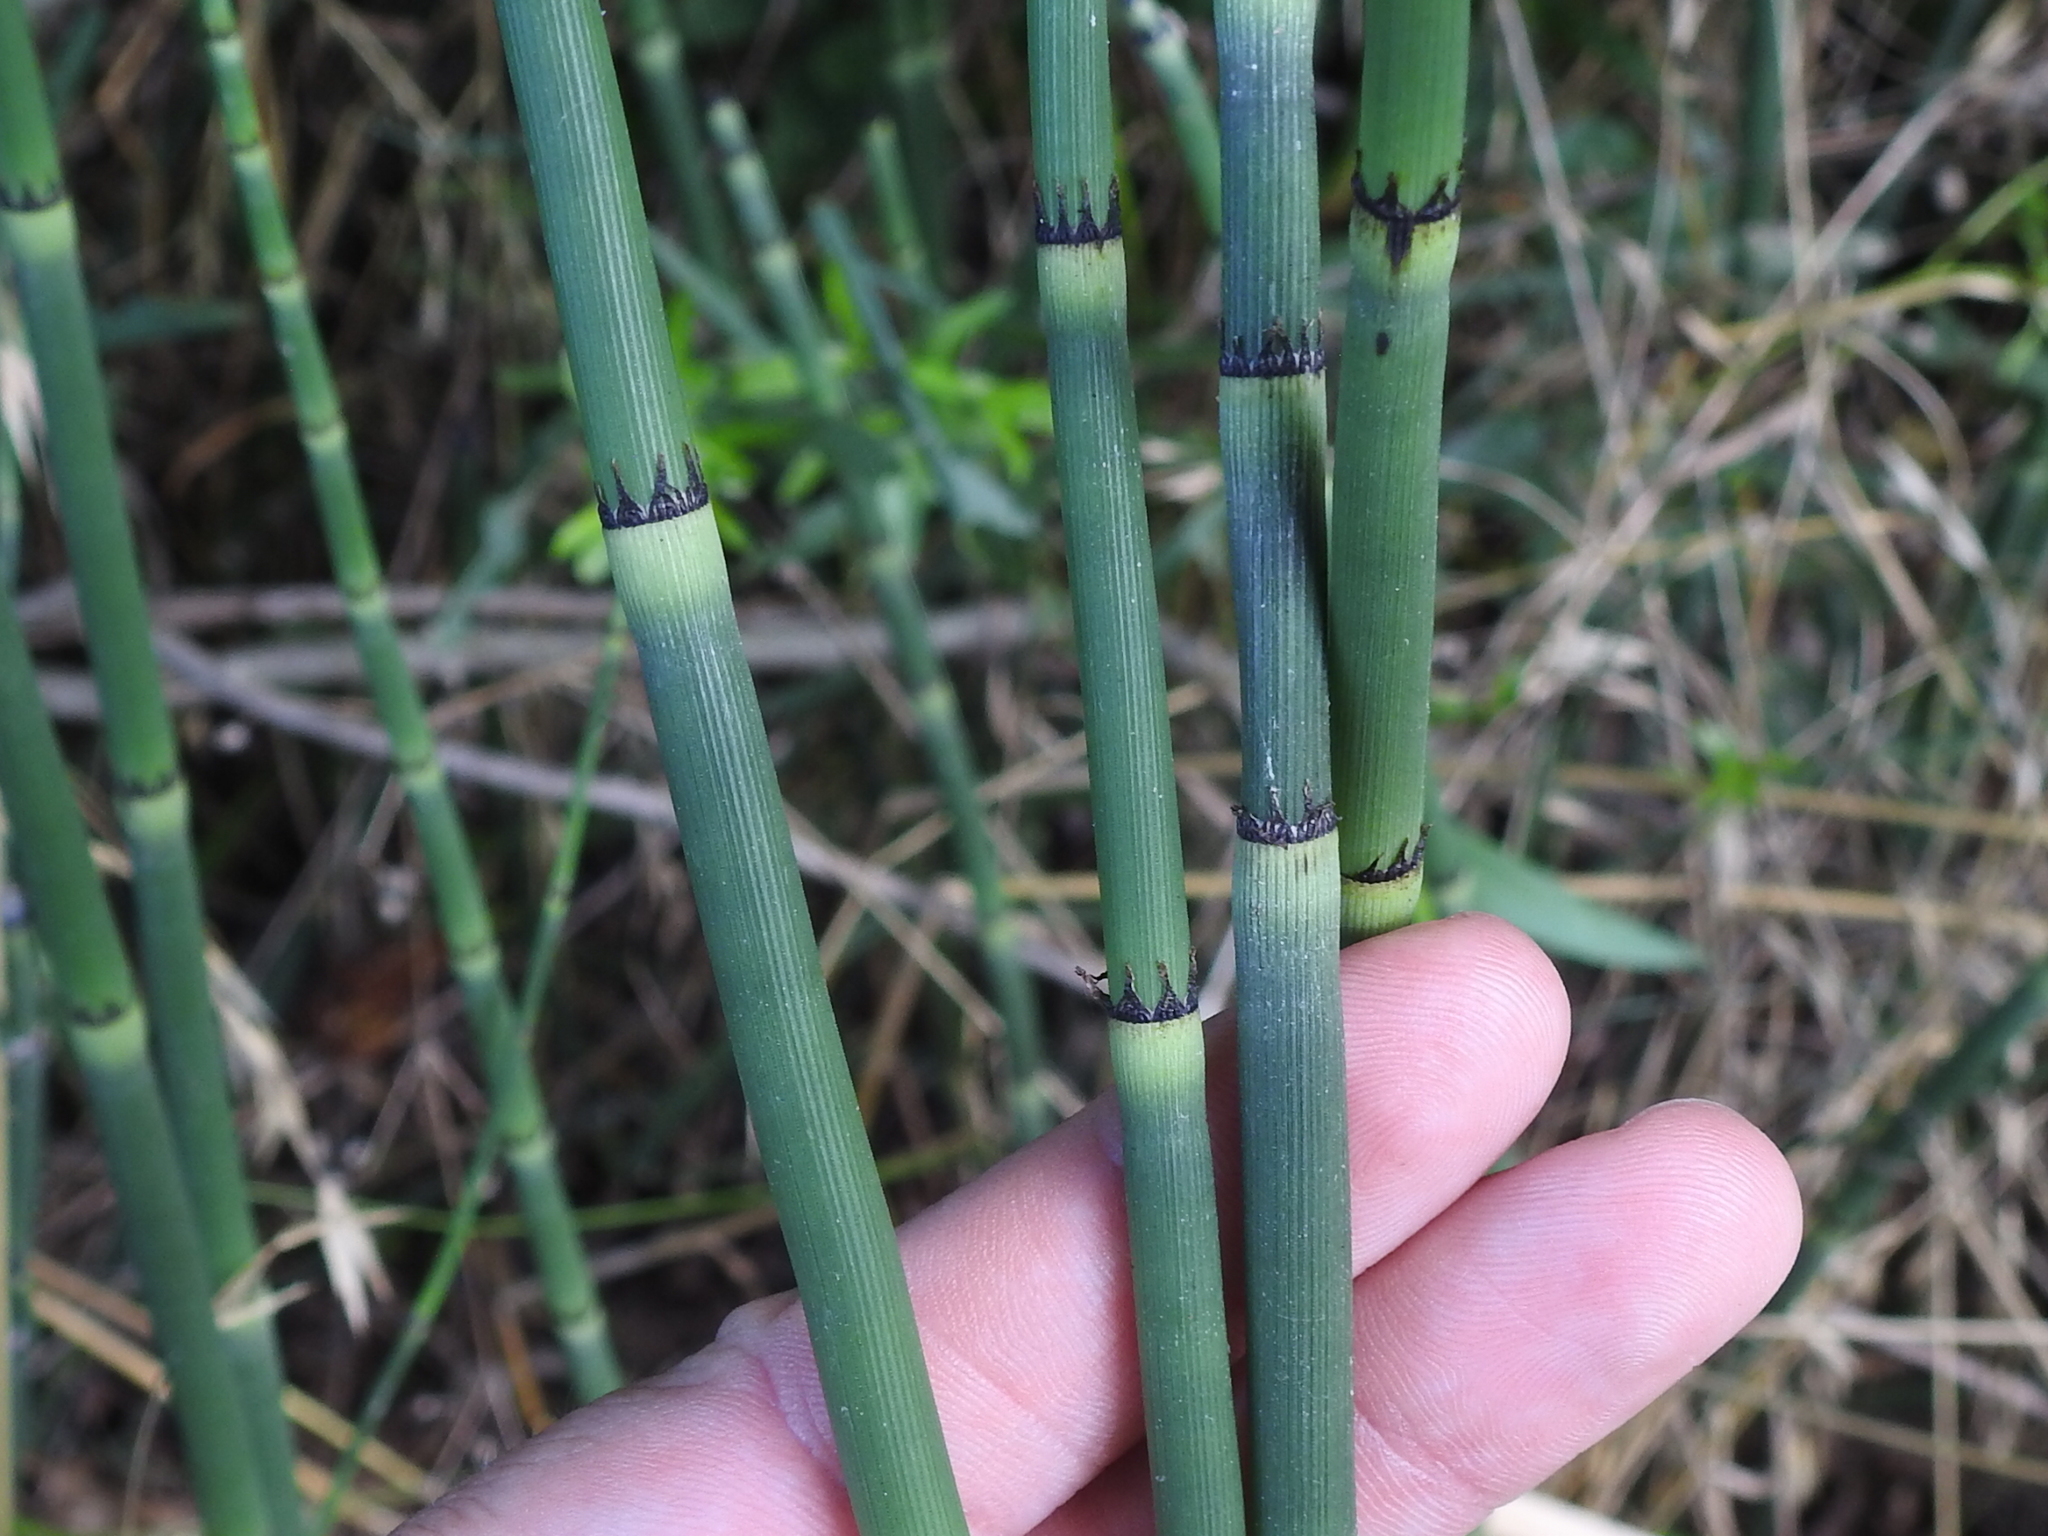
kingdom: Plantae
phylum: Tracheophyta
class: Polypodiopsida
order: Equisetales
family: Equisetaceae
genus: Equisetum
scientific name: Equisetum hyemale
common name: Rough horsetail
